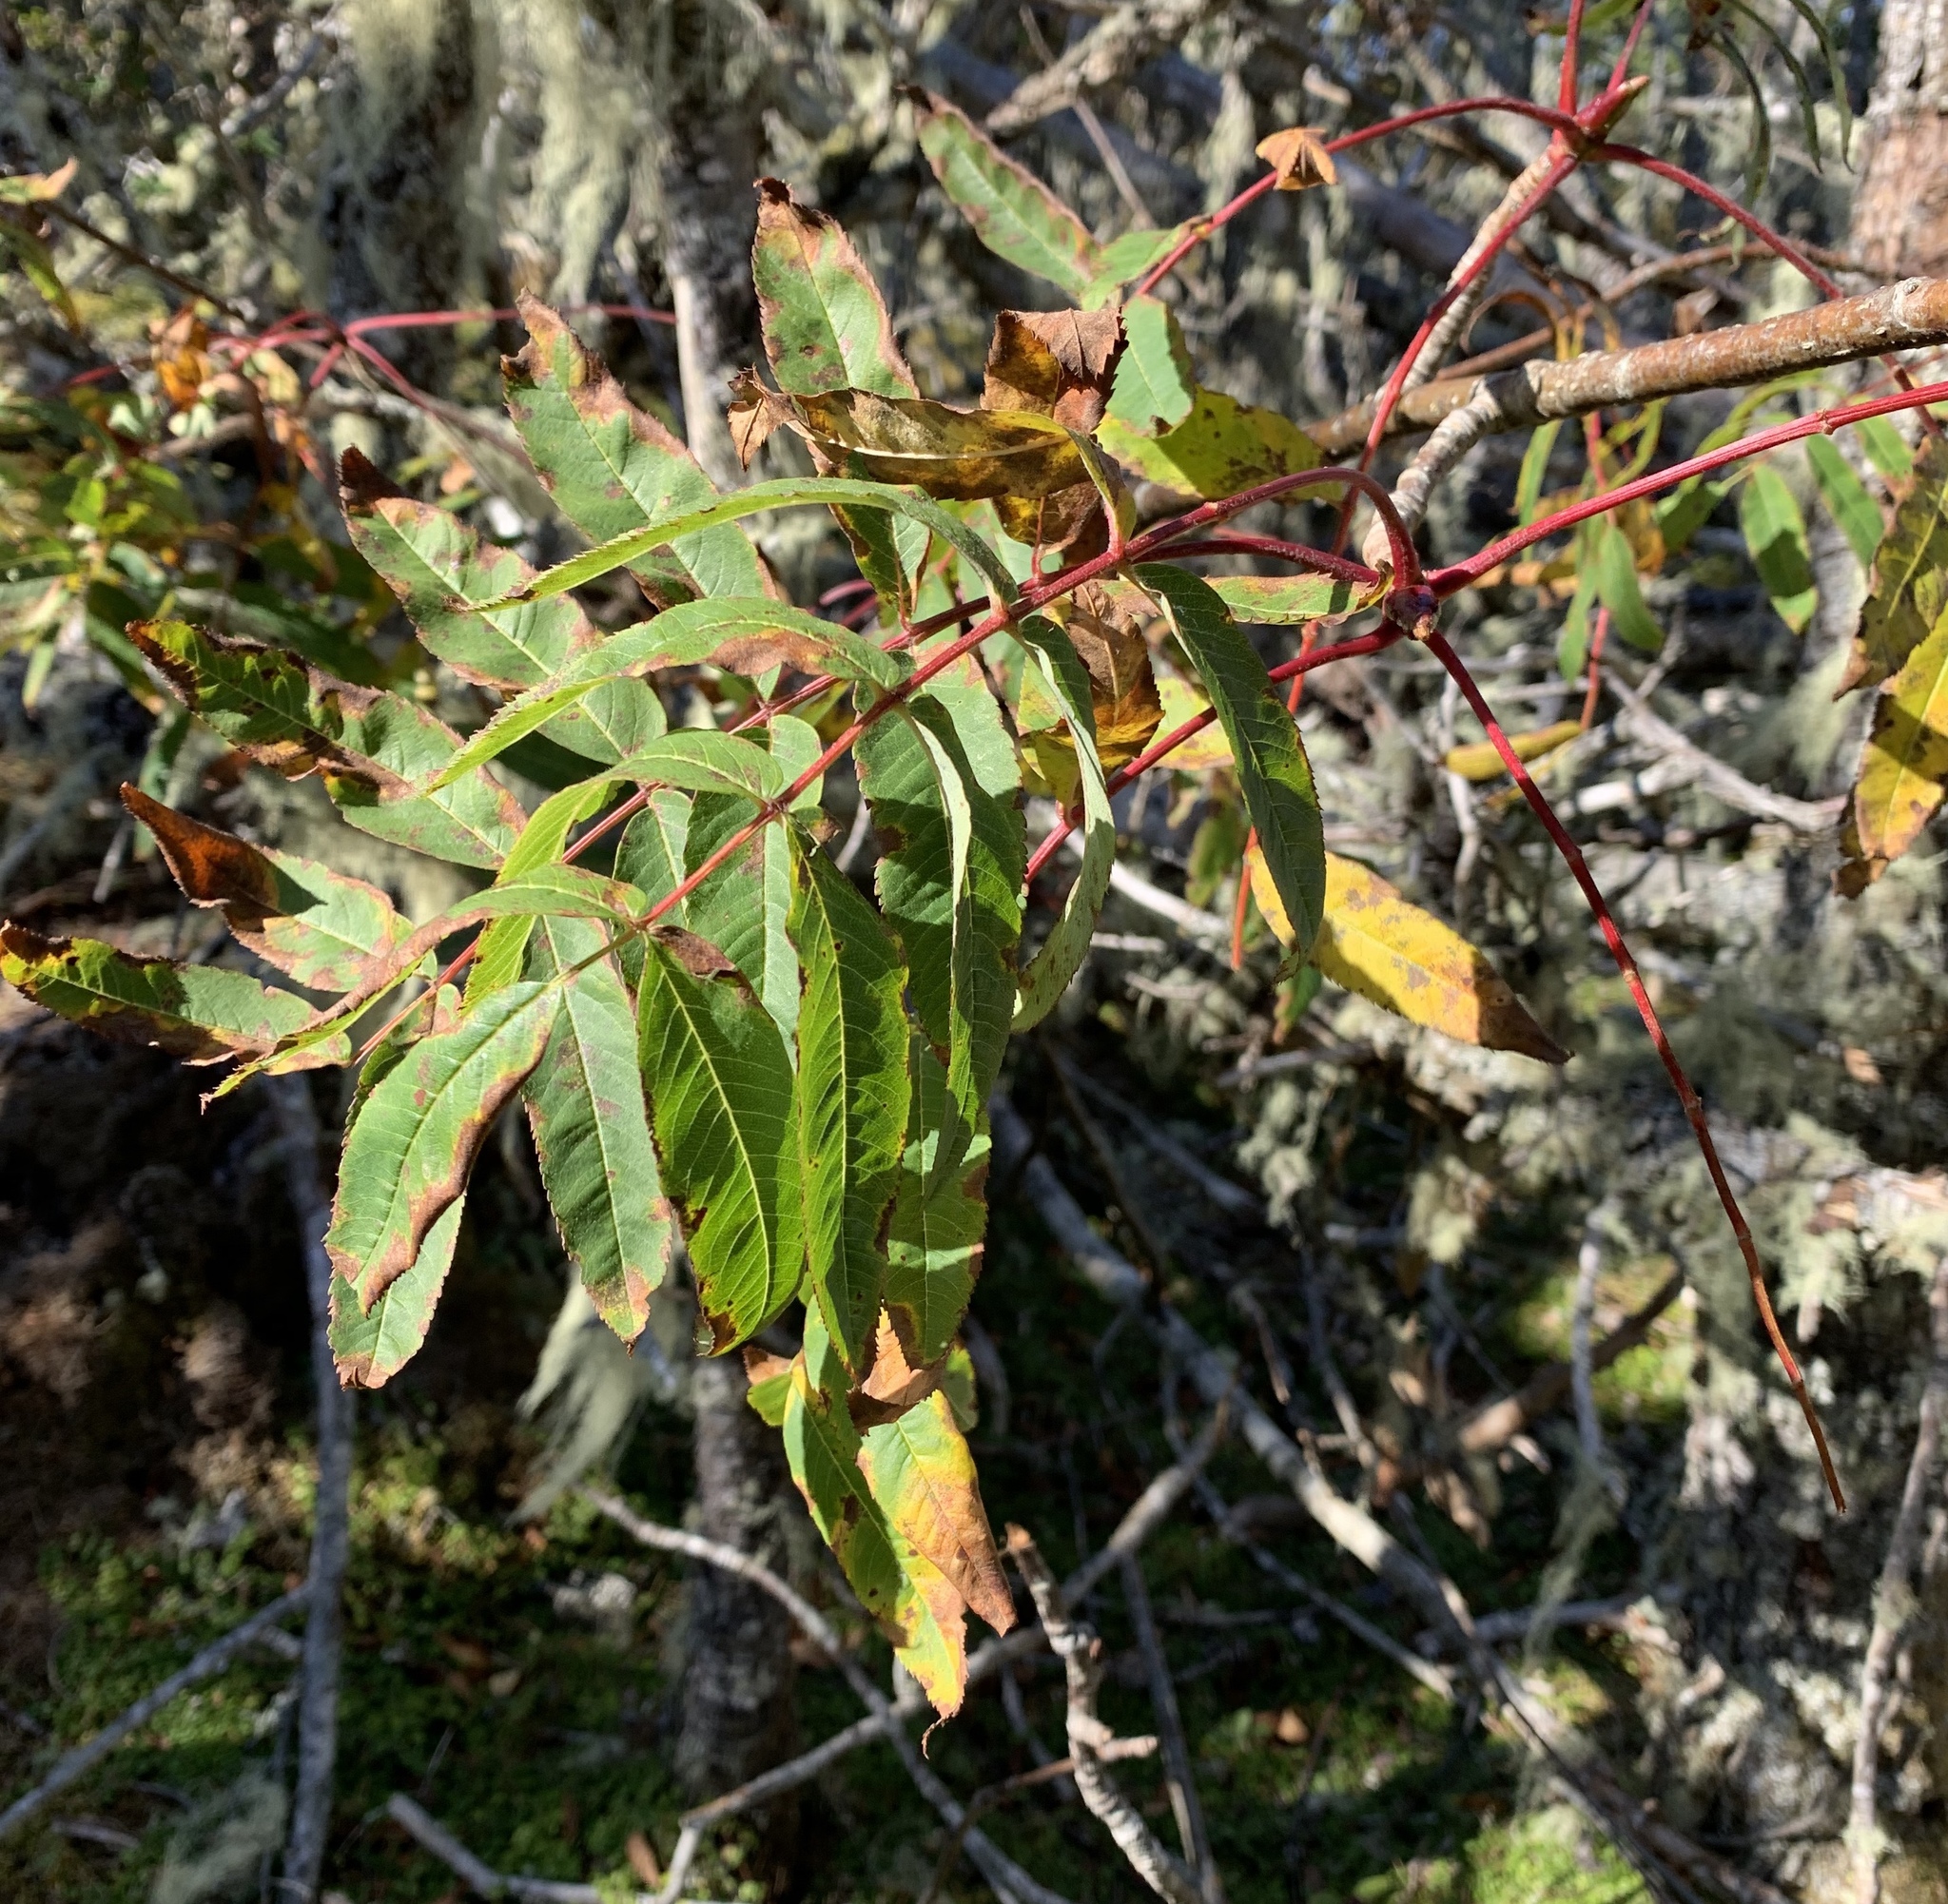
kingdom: Plantae
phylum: Tracheophyta
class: Magnoliopsida
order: Rosales
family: Rosaceae
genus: Sorbus
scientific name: Sorbus americana
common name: American mountain-ash
